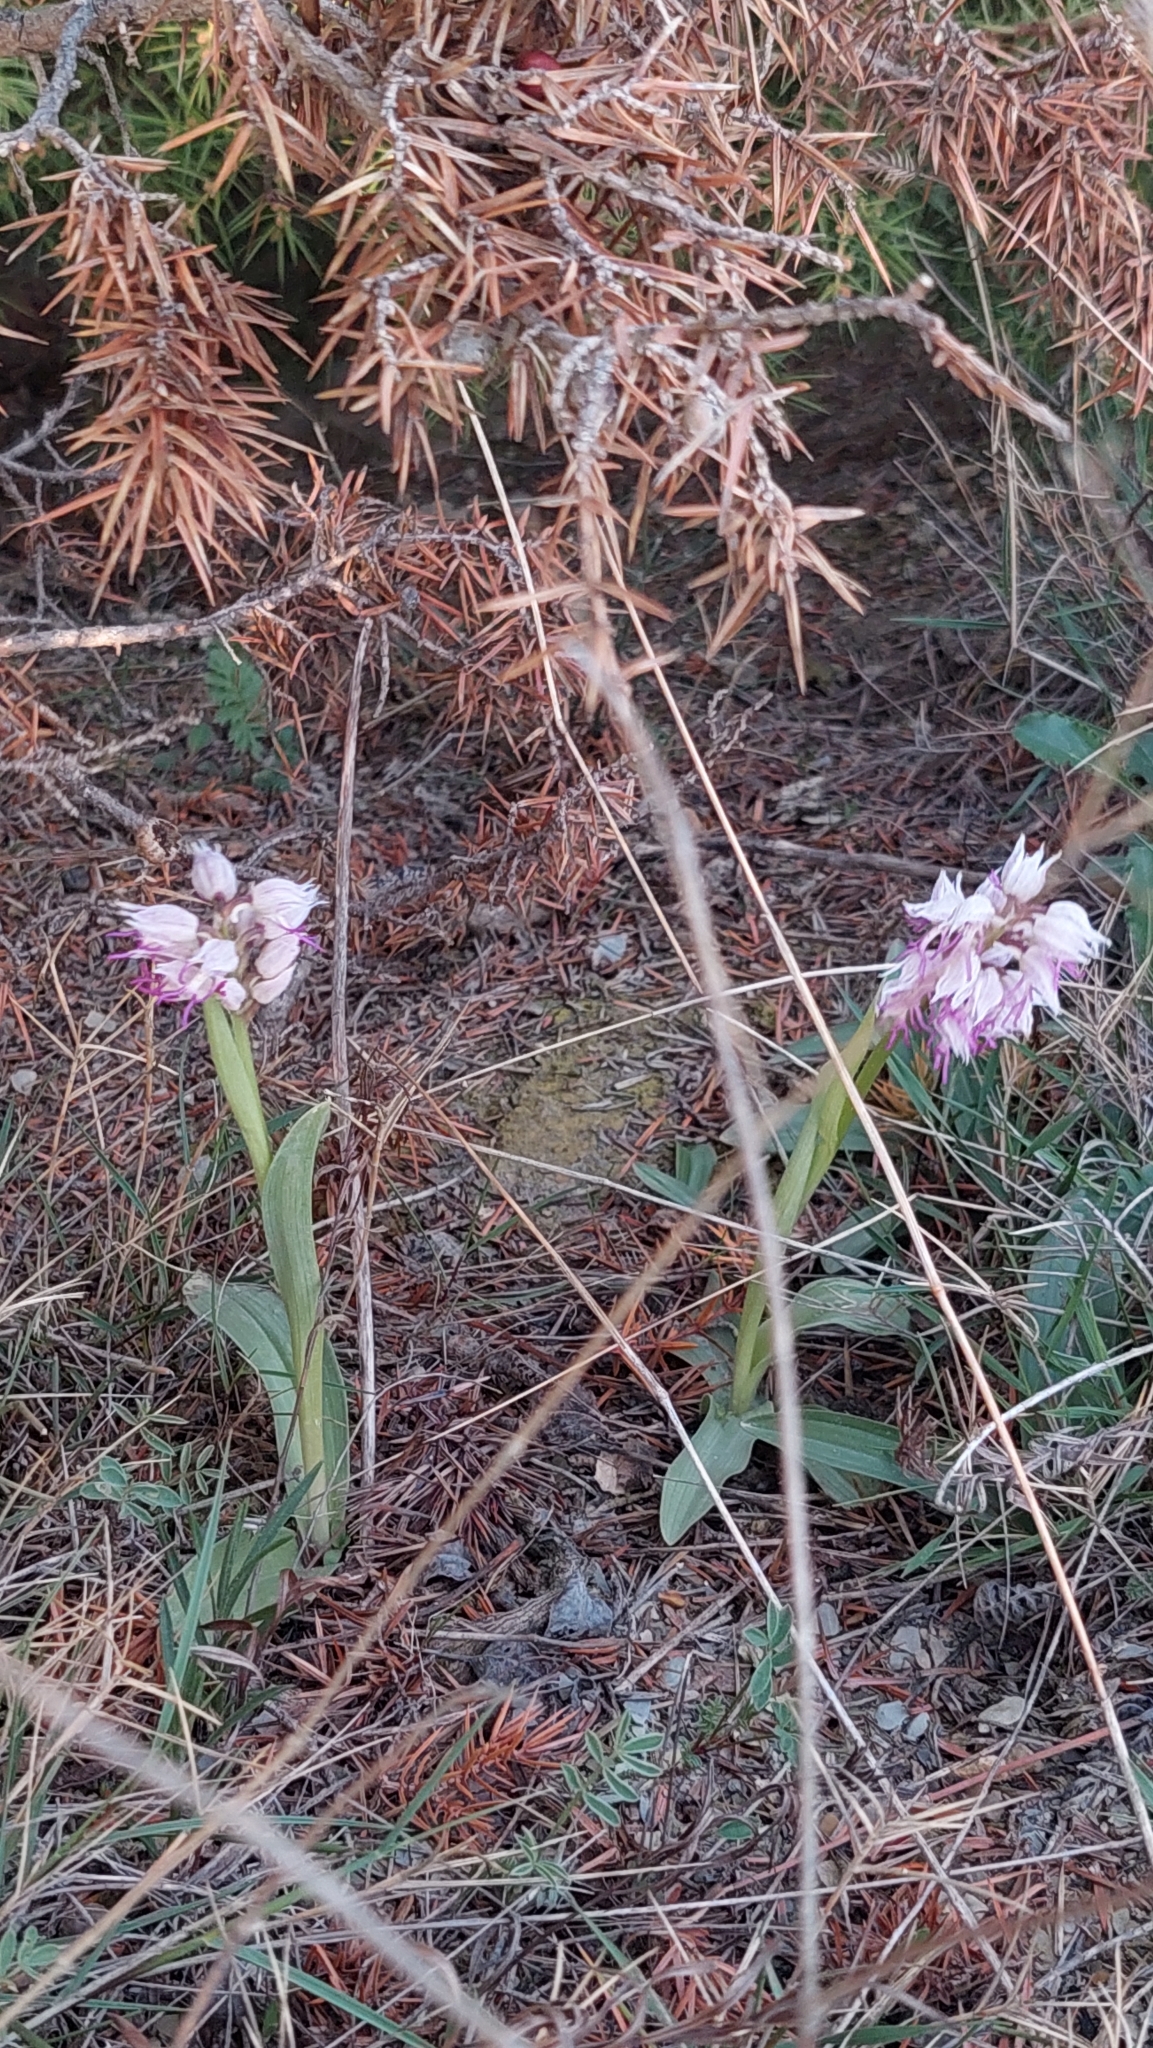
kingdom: Plantae
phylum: Tracheophyta
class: Liliopsida
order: Asparagales
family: Orchidaceae
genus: Orchis
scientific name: Orchis simia
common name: Monkey orchid
